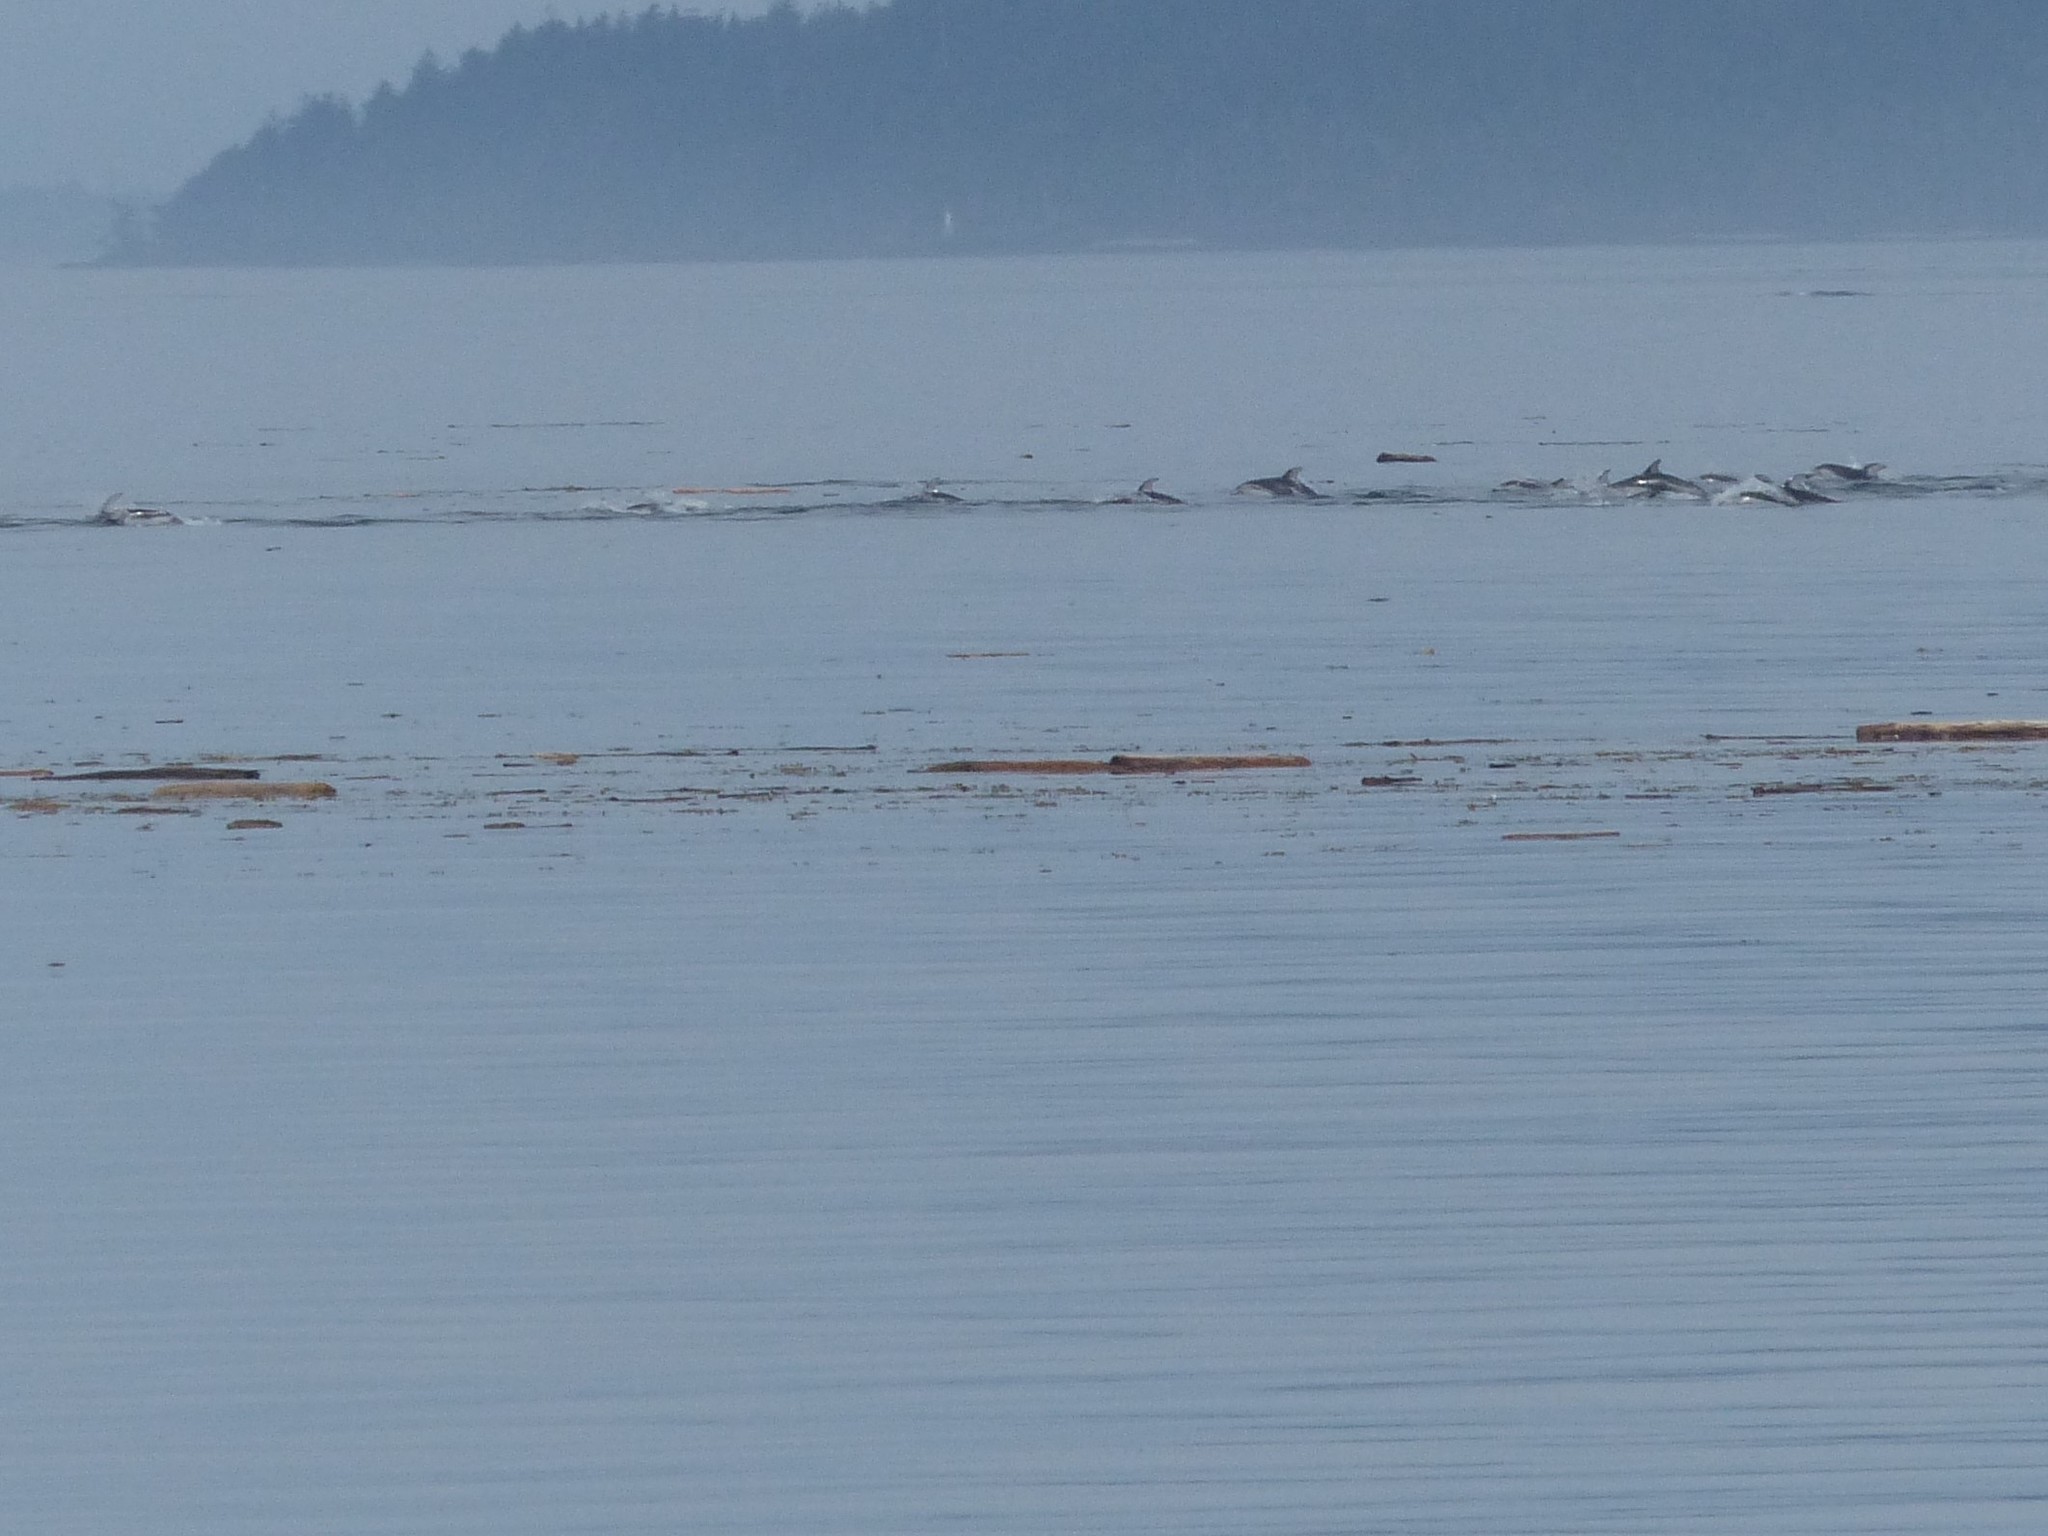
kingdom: Animalia
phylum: Chordata
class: Mammalia
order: Cetacea
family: Delphinidae
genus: Lagenorhynchus
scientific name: Lagenorhynchus obliquidens
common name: Pacific white-sided dolphin
